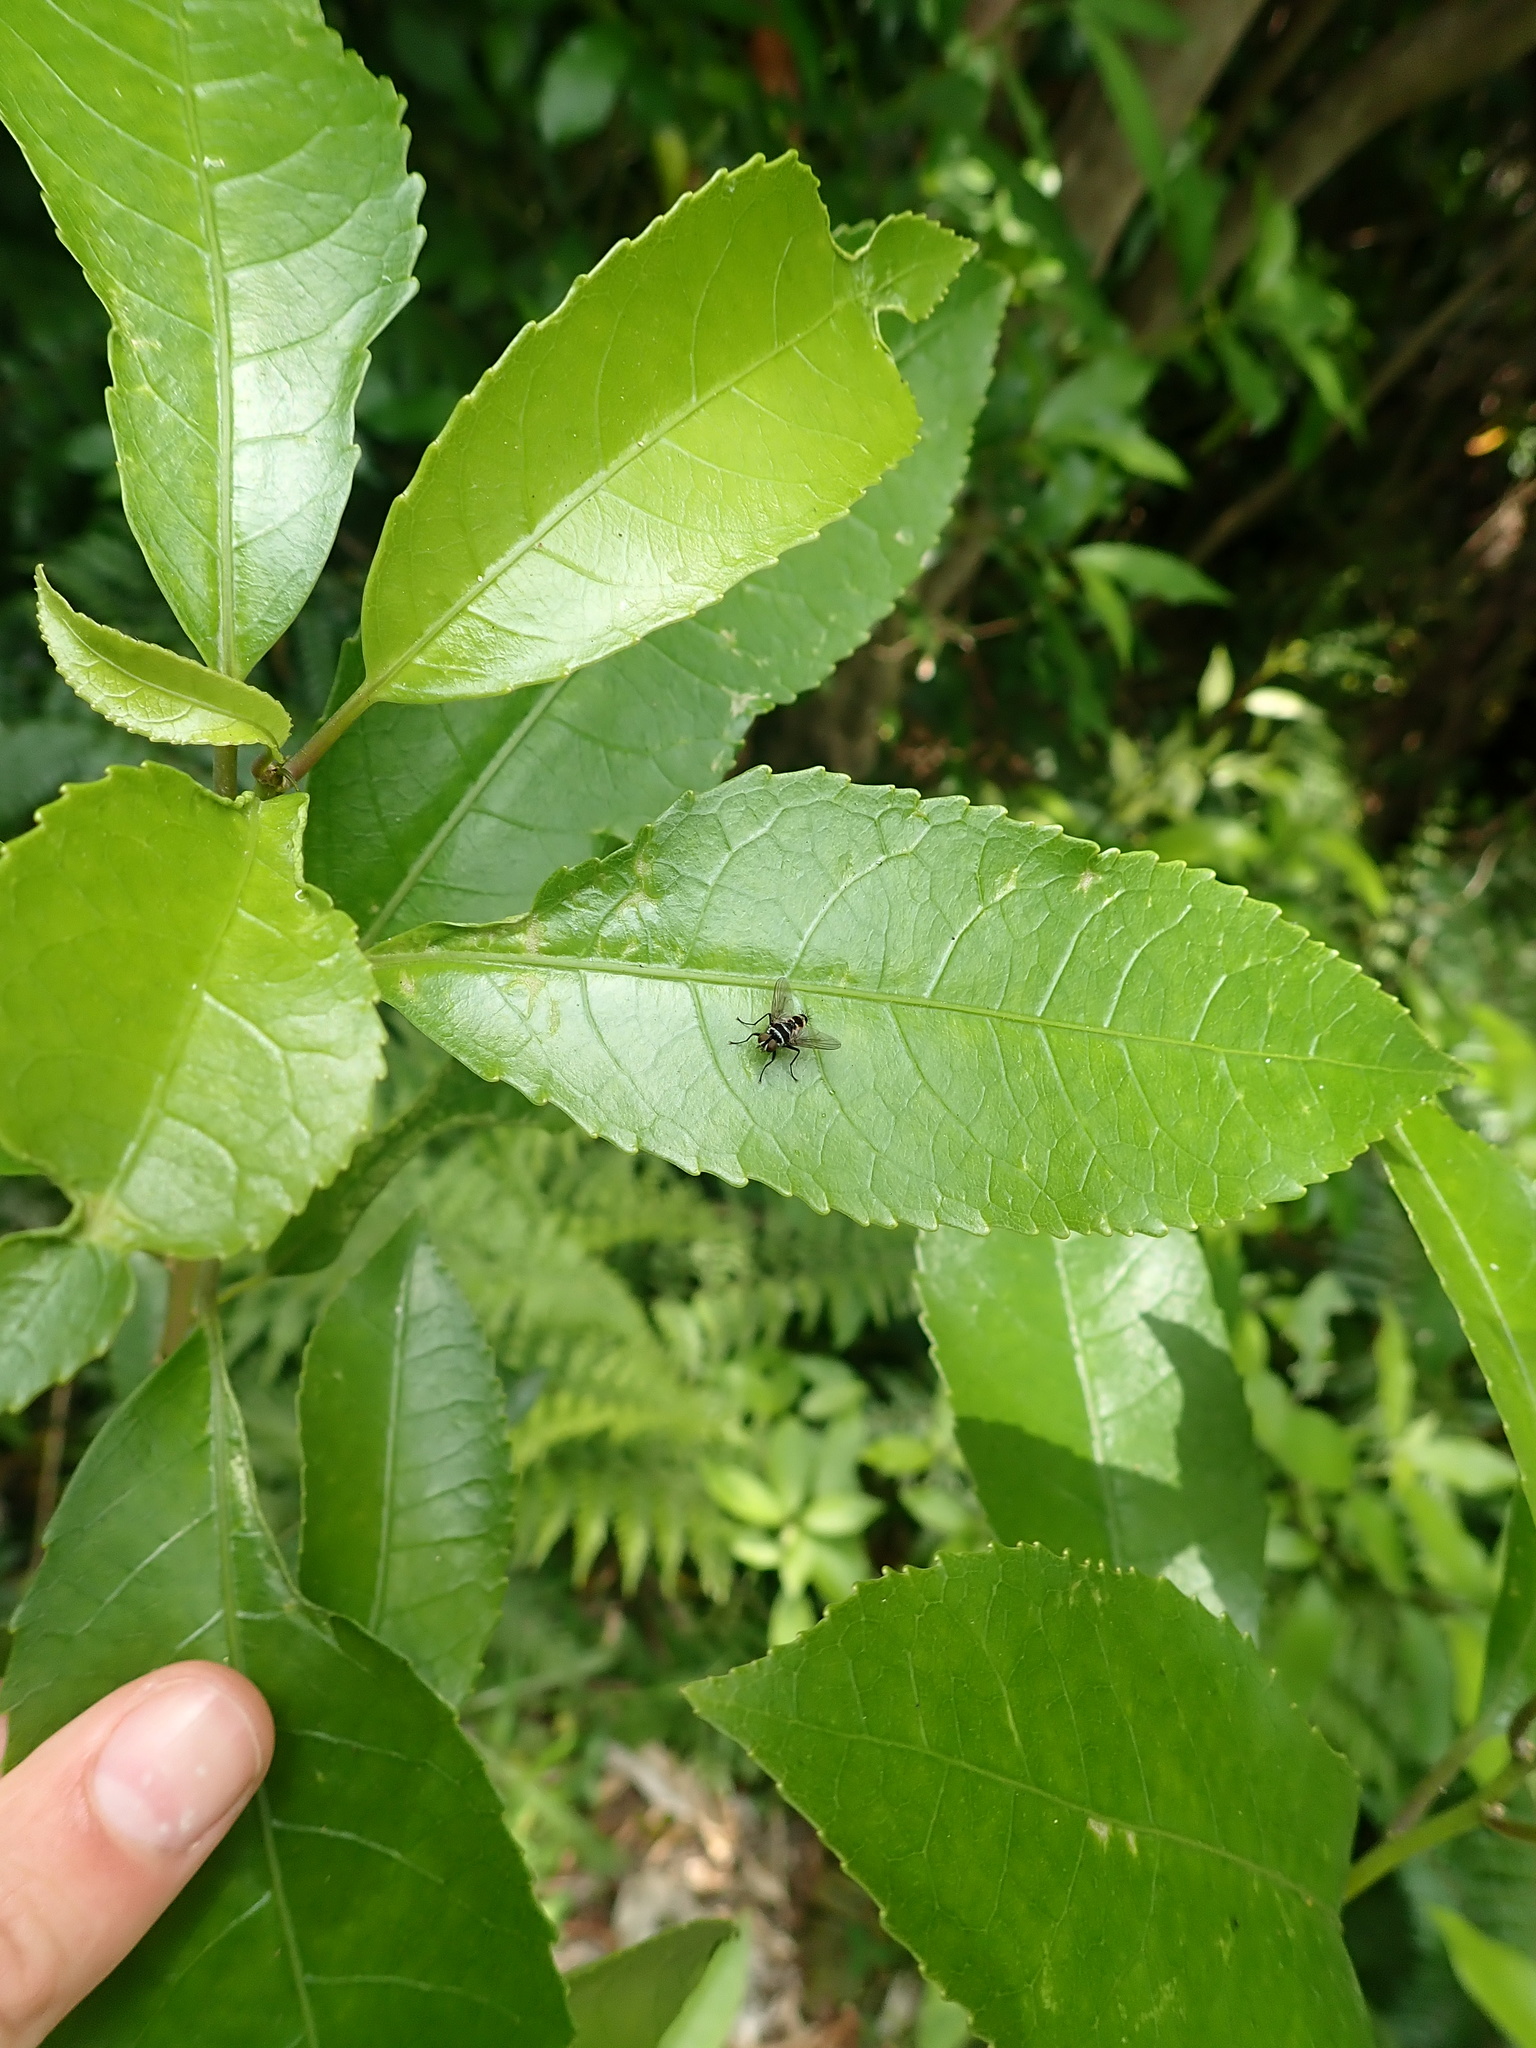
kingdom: Animalia
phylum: Arthropoda
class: Insecta
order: Diptera
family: Tachinidae
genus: Trigonospila
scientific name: Trigonospila brevifacies
